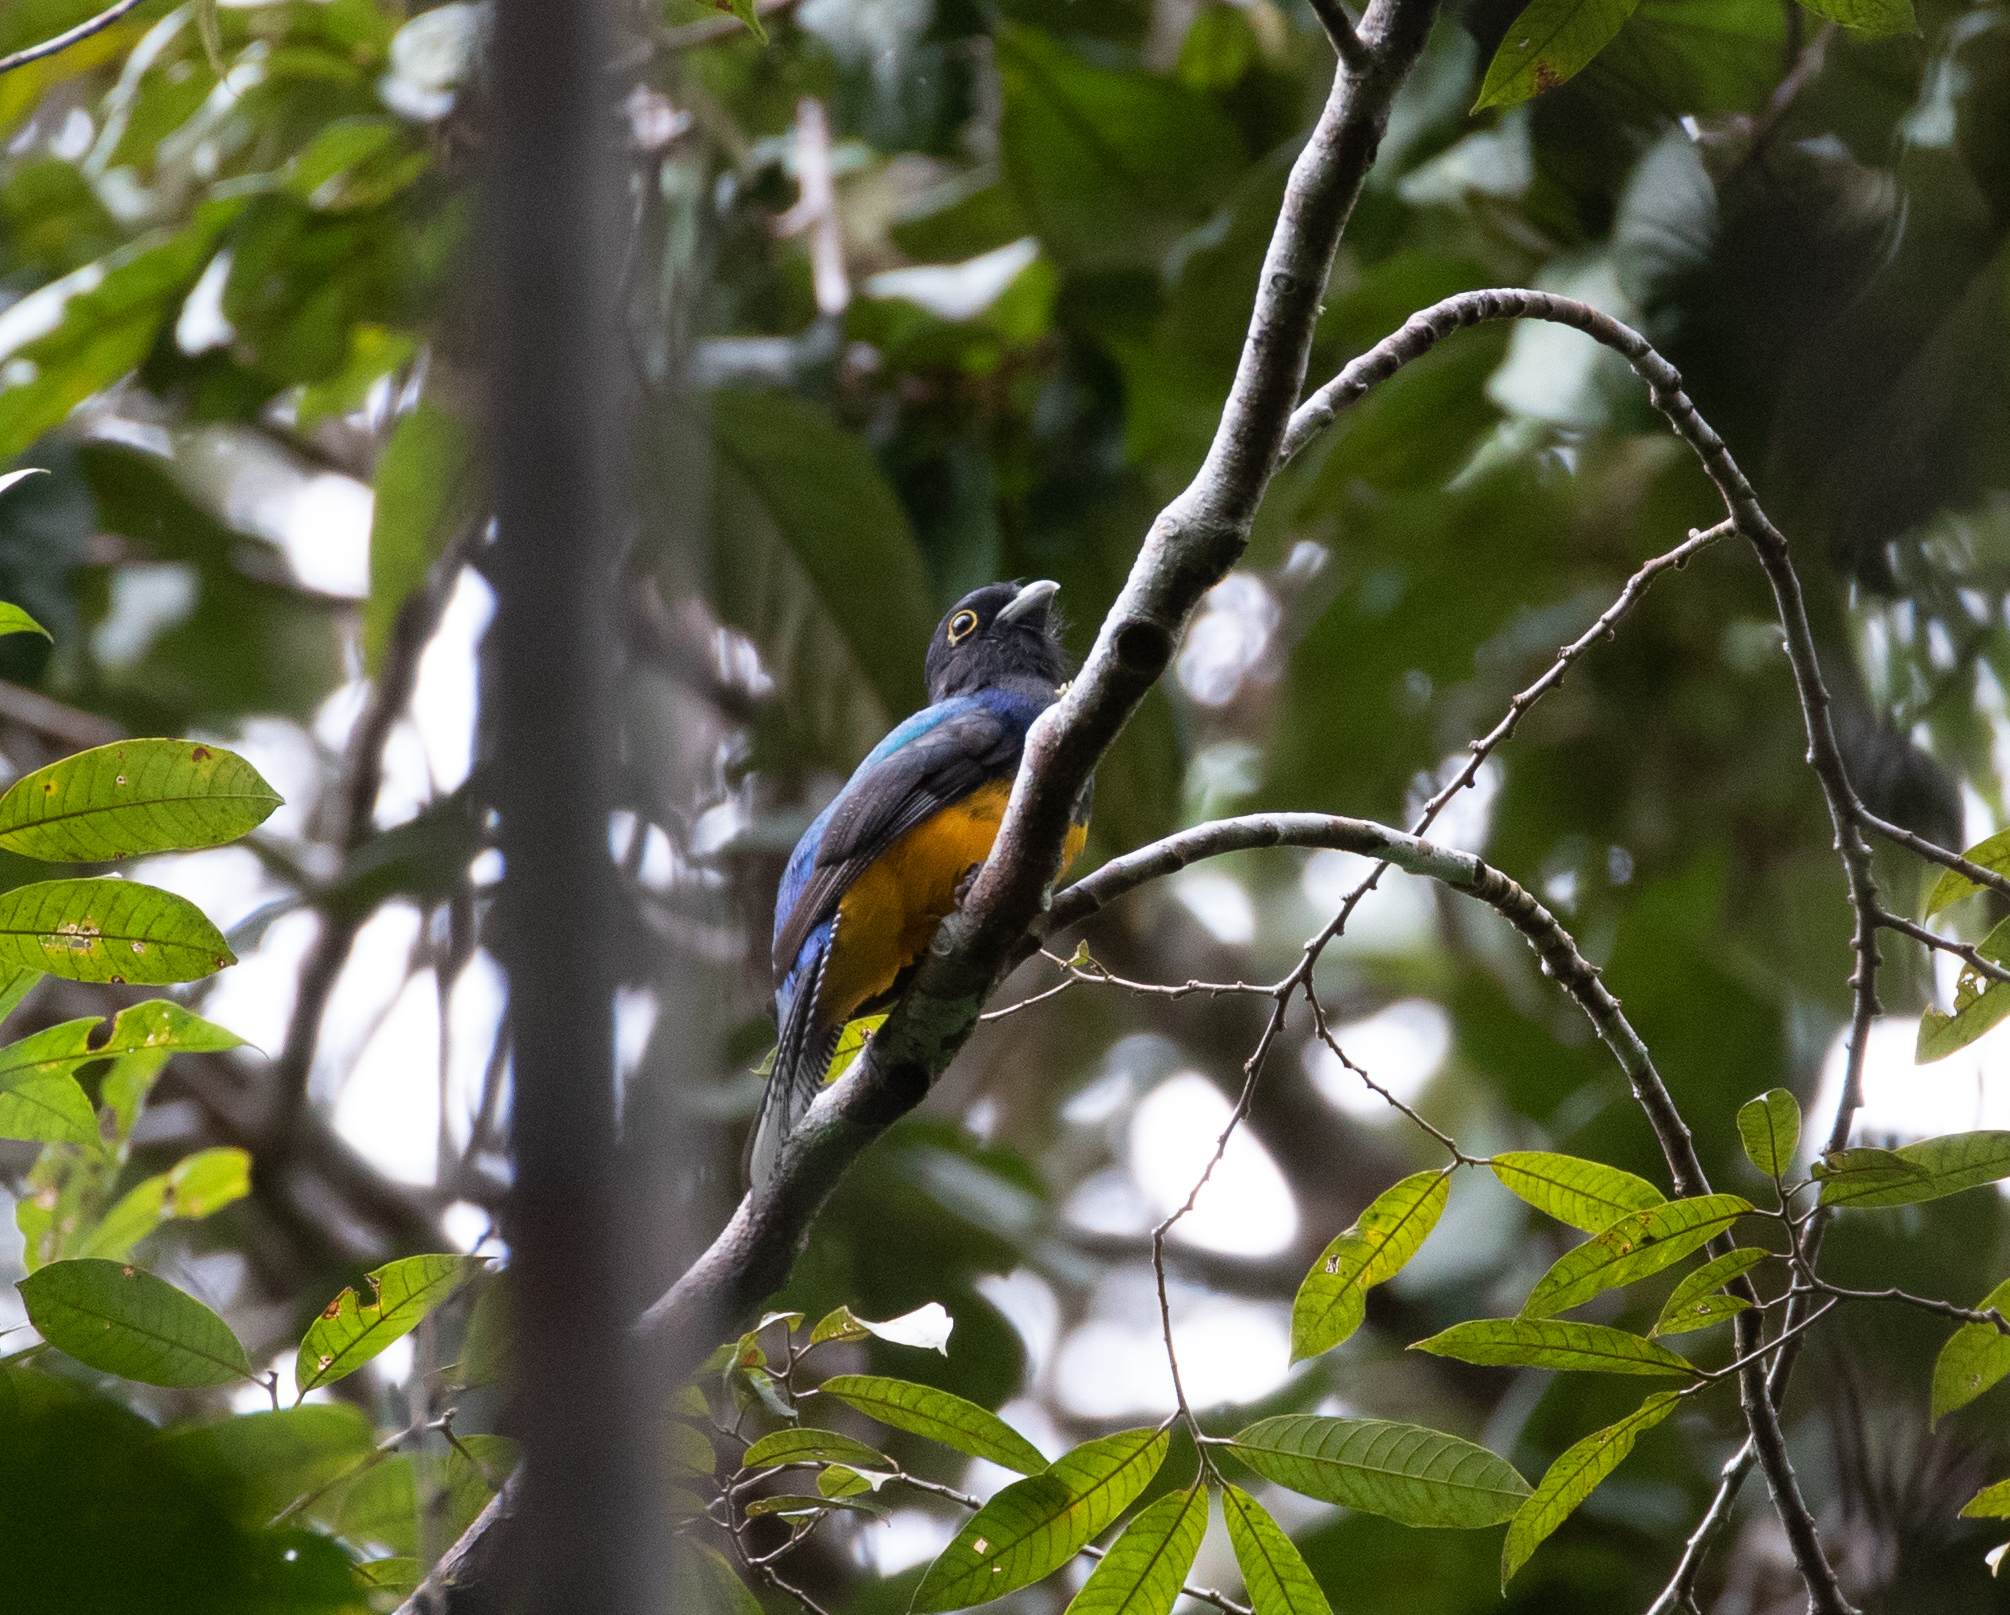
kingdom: Animalia
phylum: Chordata
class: Aves
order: Trogoniformes
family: Trogonidae
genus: Trogon
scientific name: Trogon ramonianus
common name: Amazonian trogon
